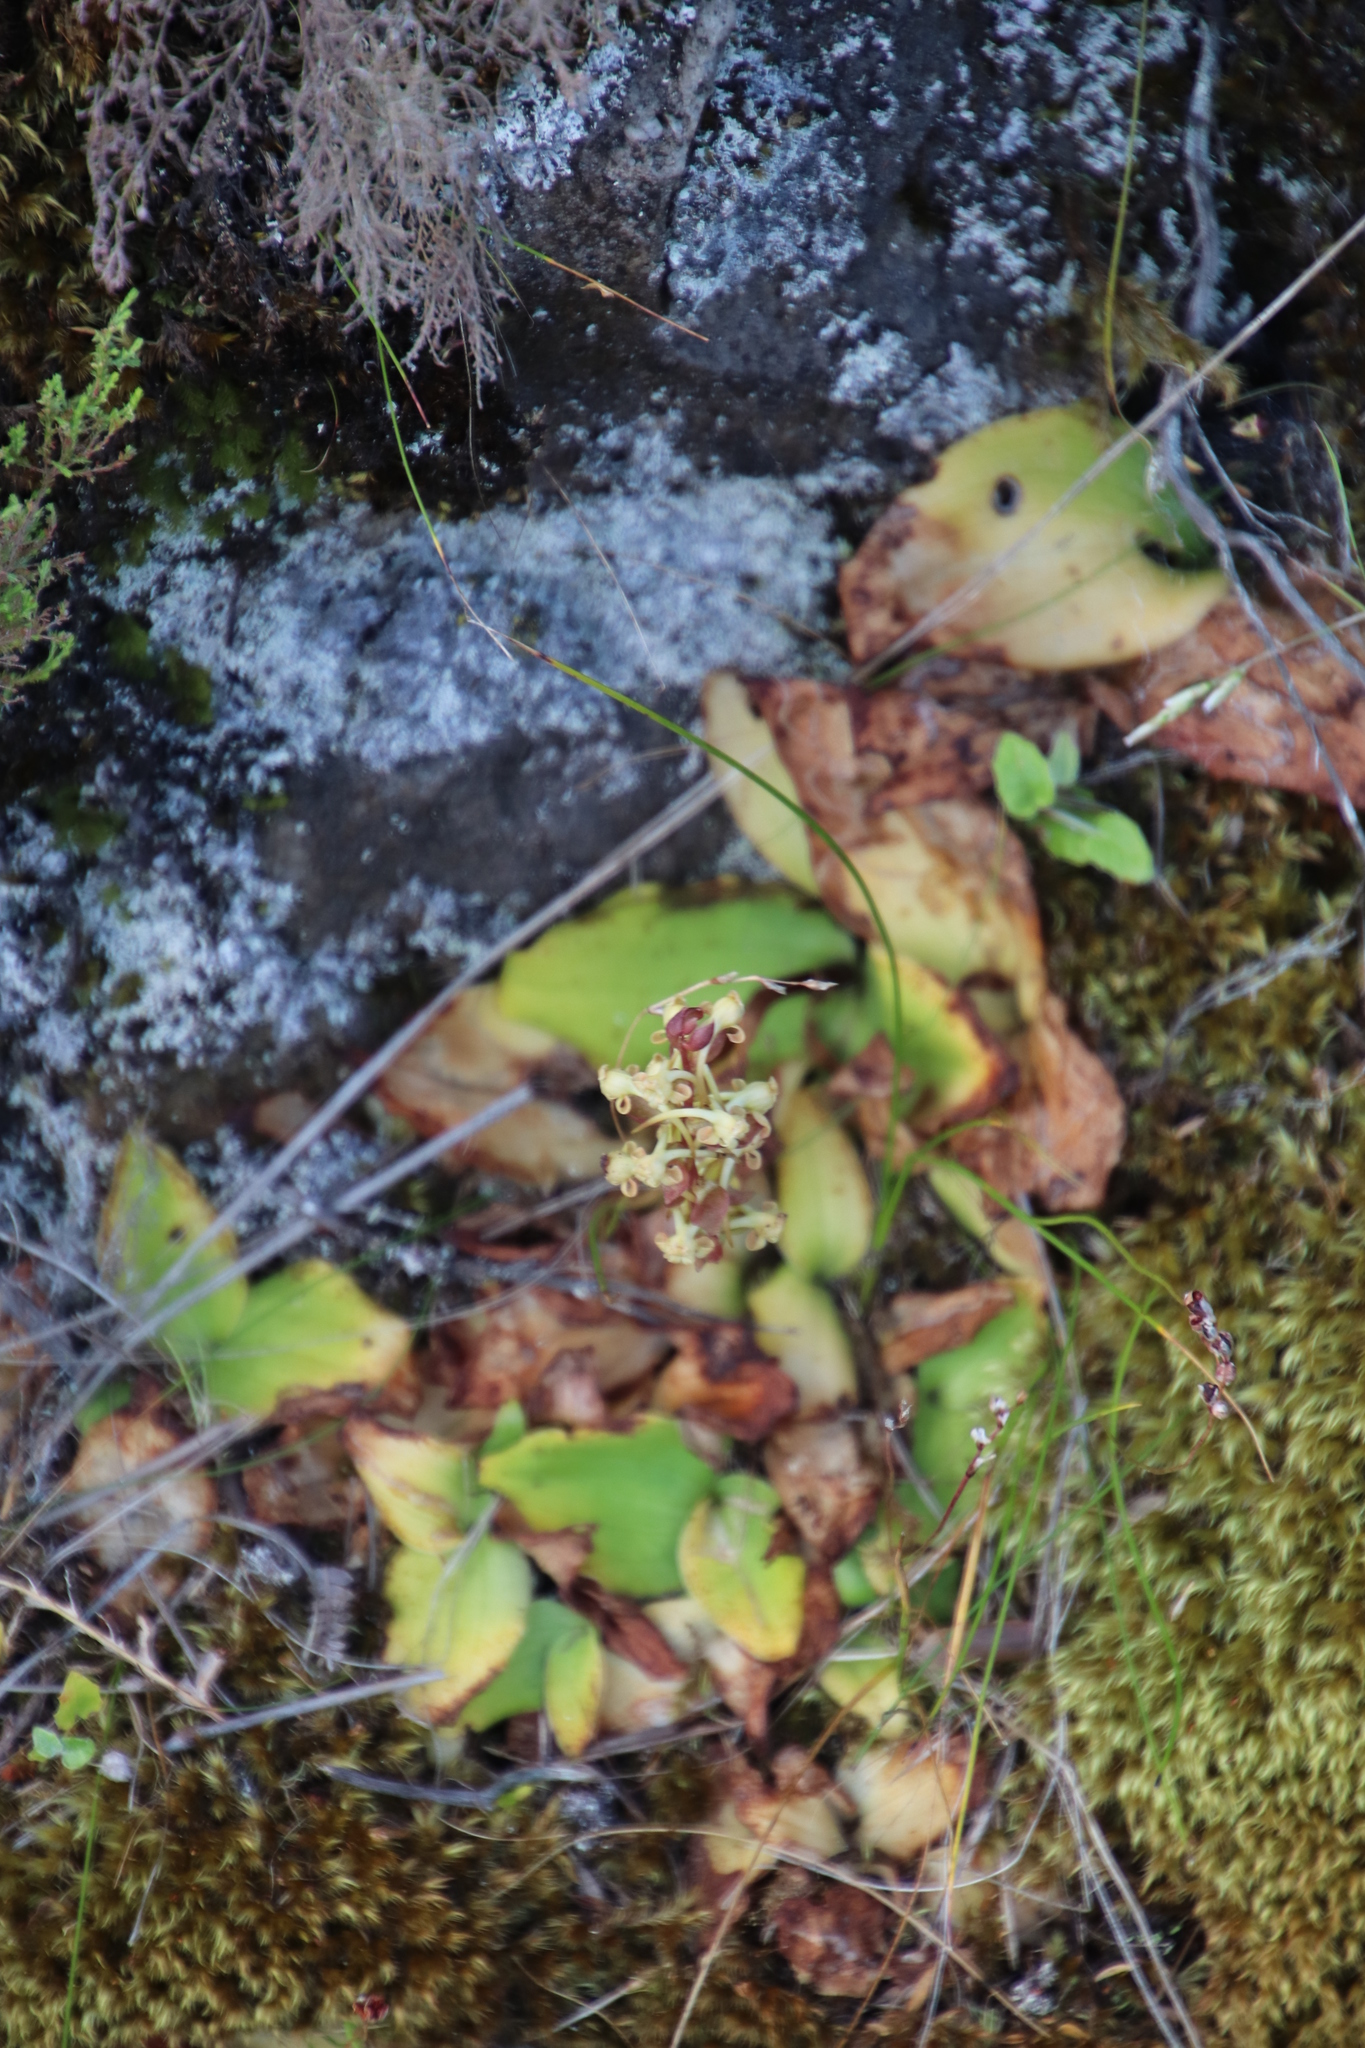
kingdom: Plantae
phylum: Tracheophyta
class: Liliopsida
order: Asparagales
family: Orchidaceae
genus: Satyrium
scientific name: Satyrium humile
